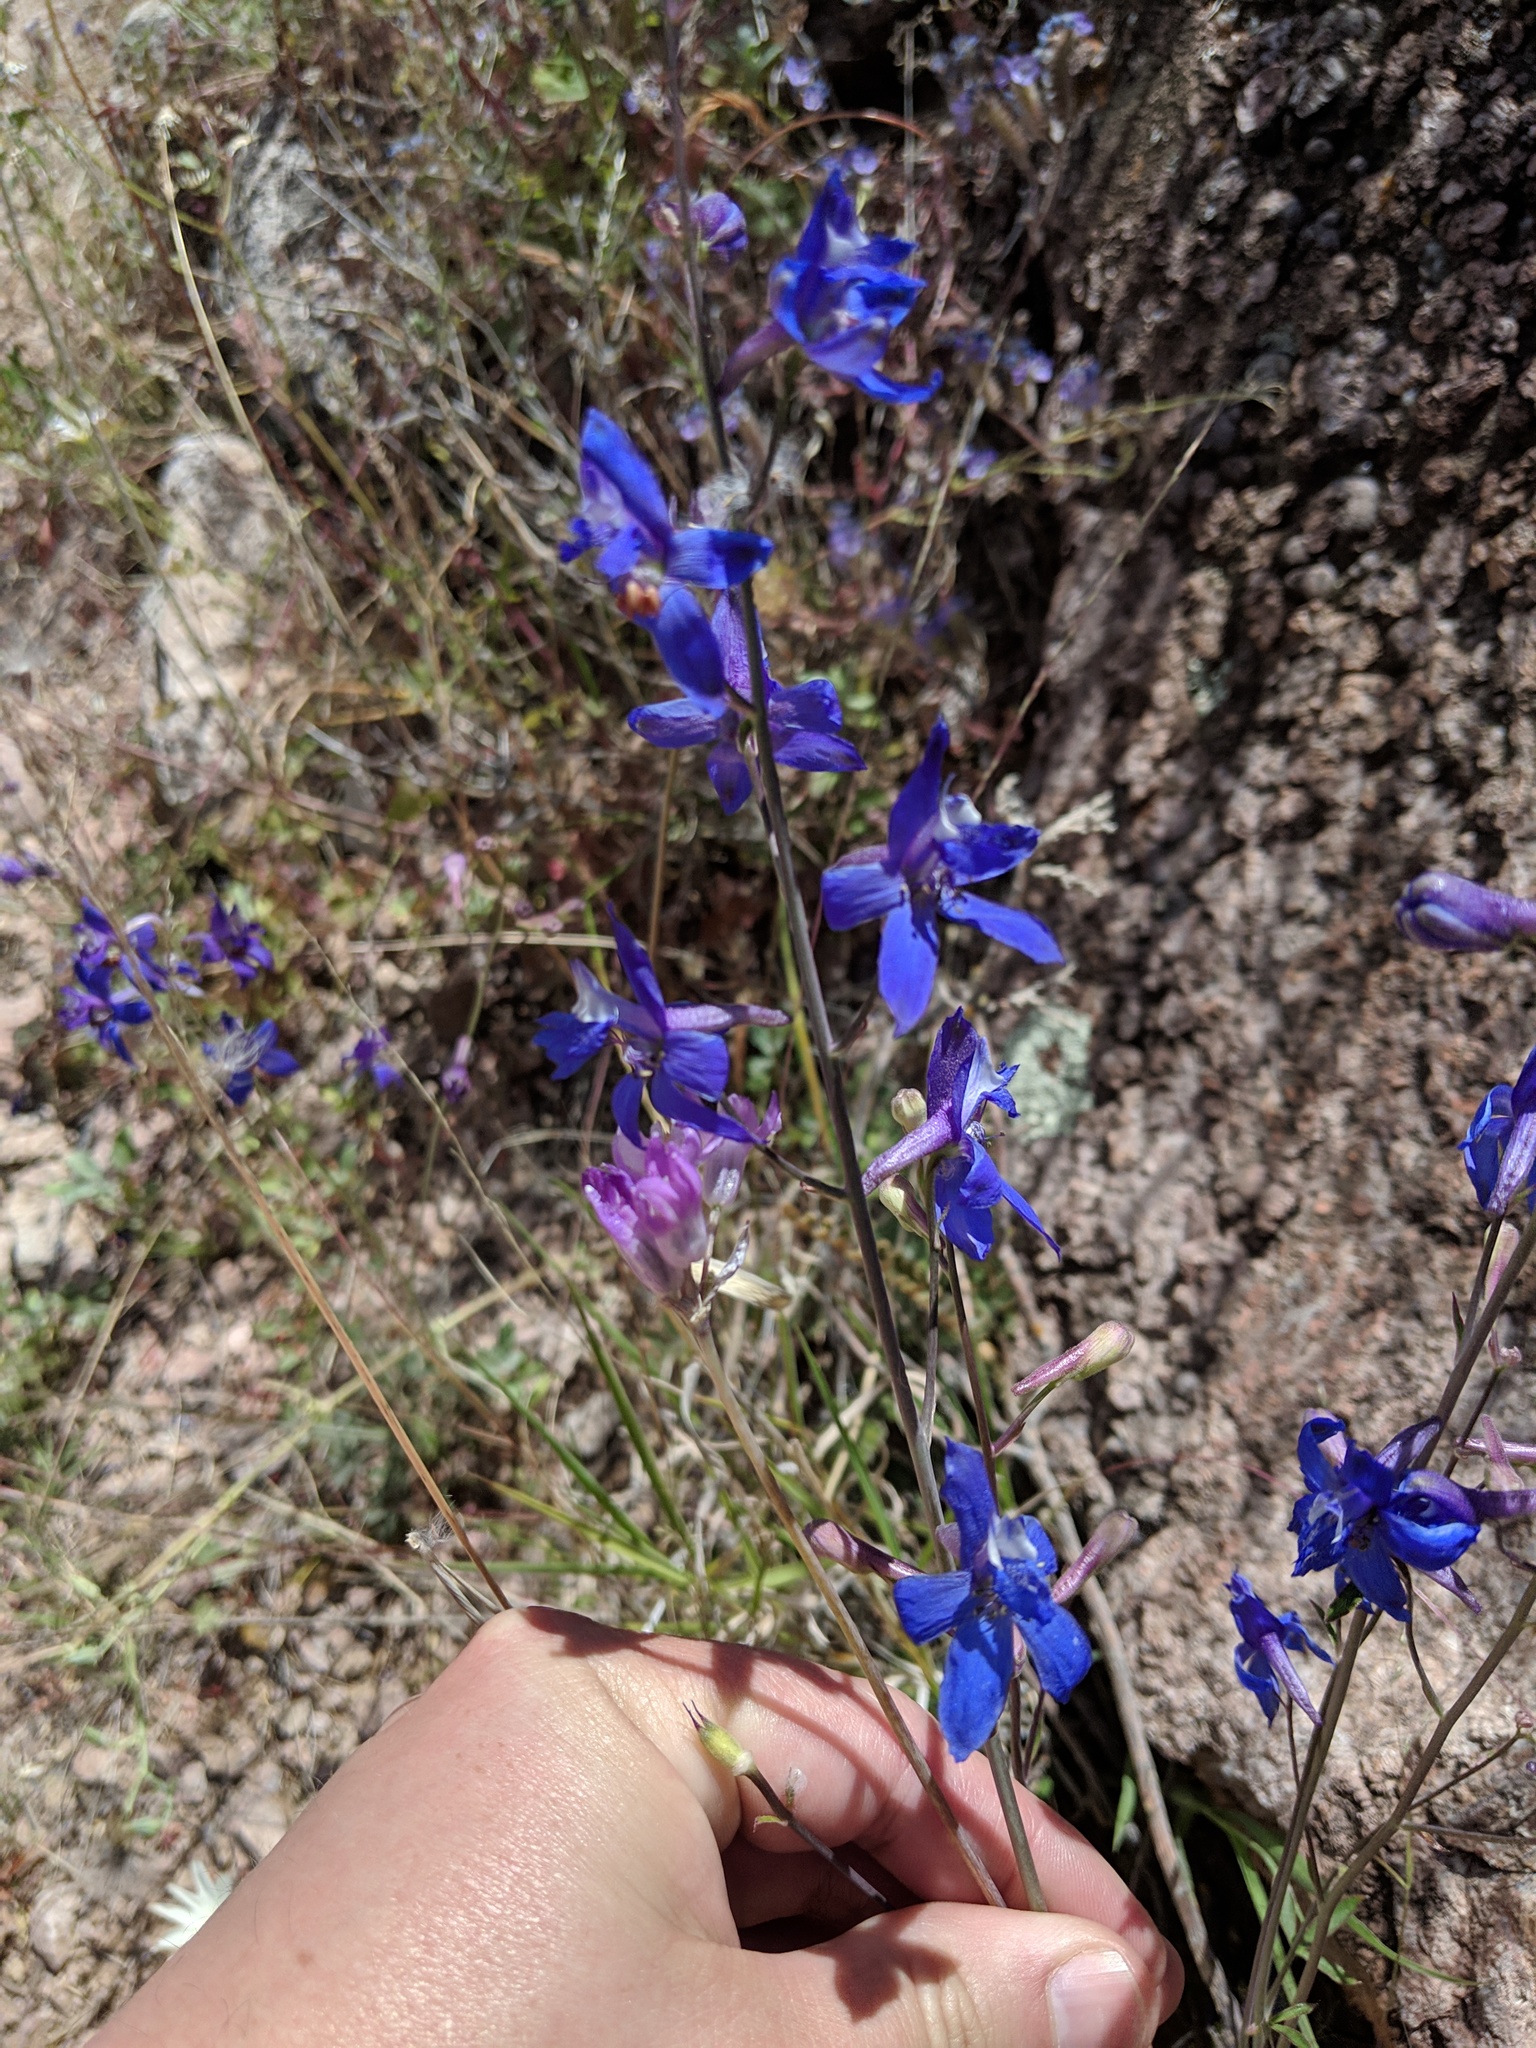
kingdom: Plantae
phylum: Tracheophyta
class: Magnoliopsida
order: Ranunculales
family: Ranunculaceae
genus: Delphinium
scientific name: Delphinium scaposum
